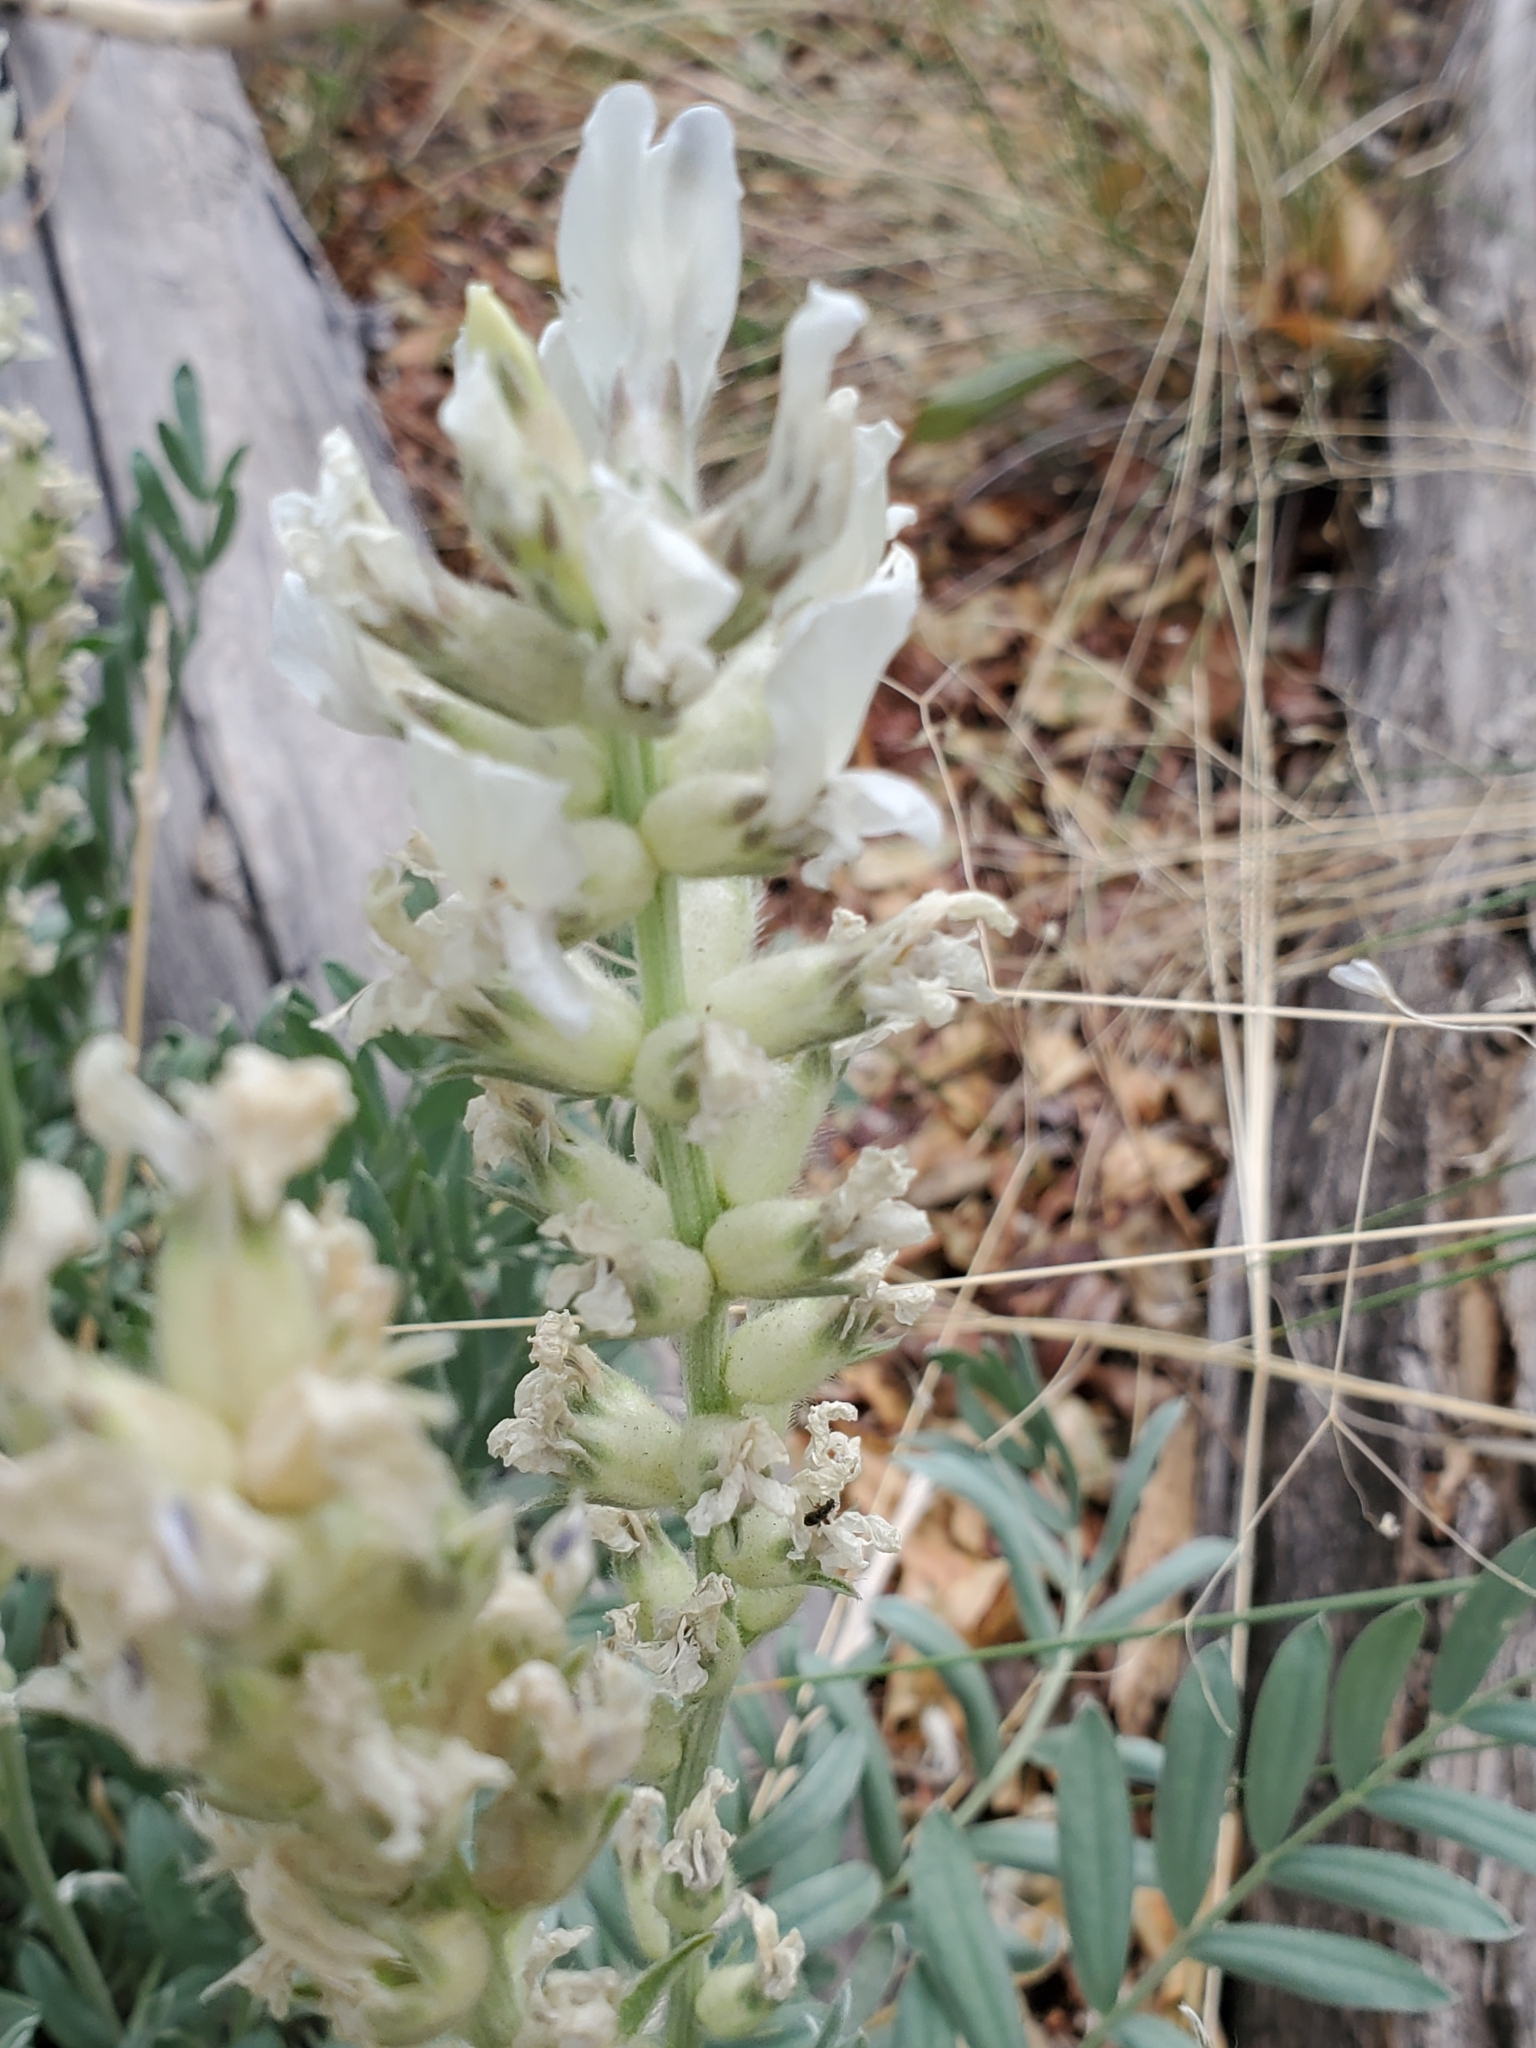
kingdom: Plantae
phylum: Tracheophyta
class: Magnoliopsida
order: Fabales
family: Fabaceae
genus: Oxytropis
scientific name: Oxytropis sericea
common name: Silky locoweed
